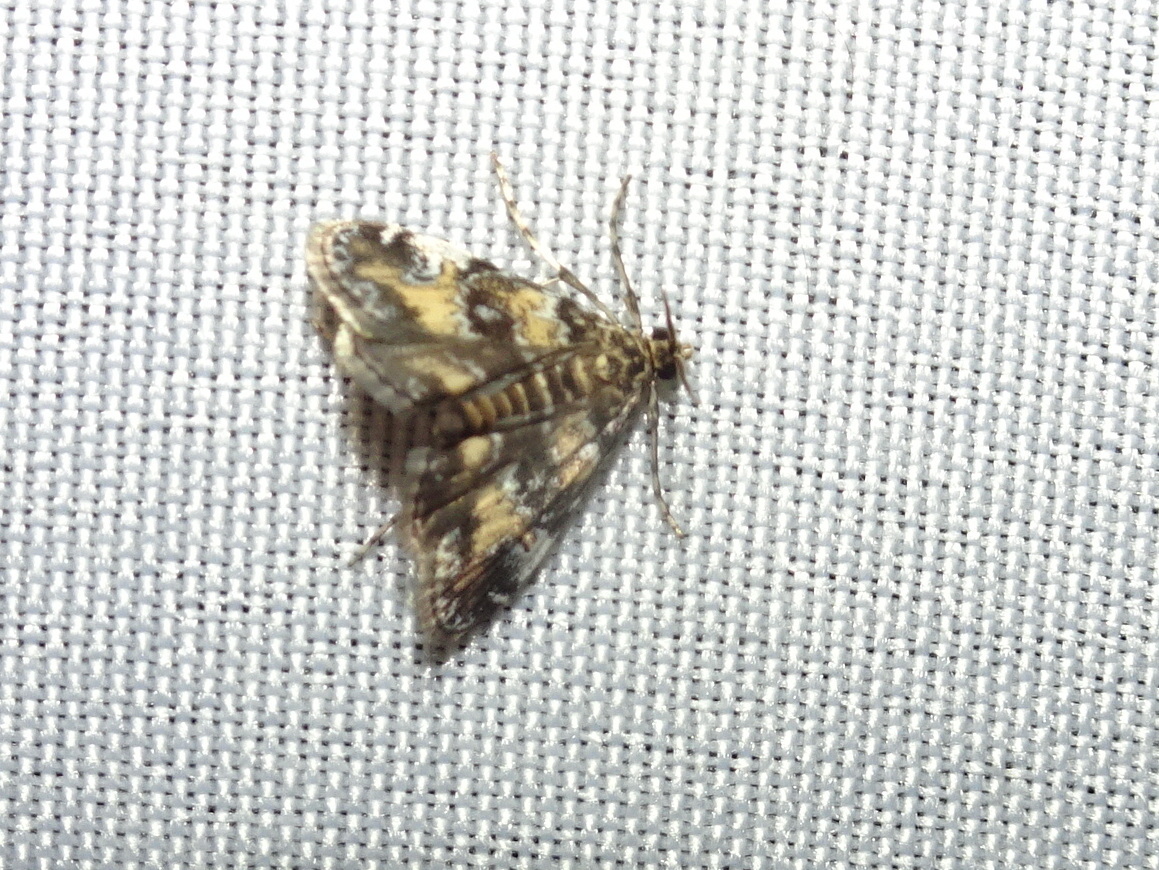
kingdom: Animalia
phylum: Arthropoda
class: Insecta
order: Lepidoptera
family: Crambidae
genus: Elophila
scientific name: Elophila obliteralis
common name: Waterlily leafcutter moth
